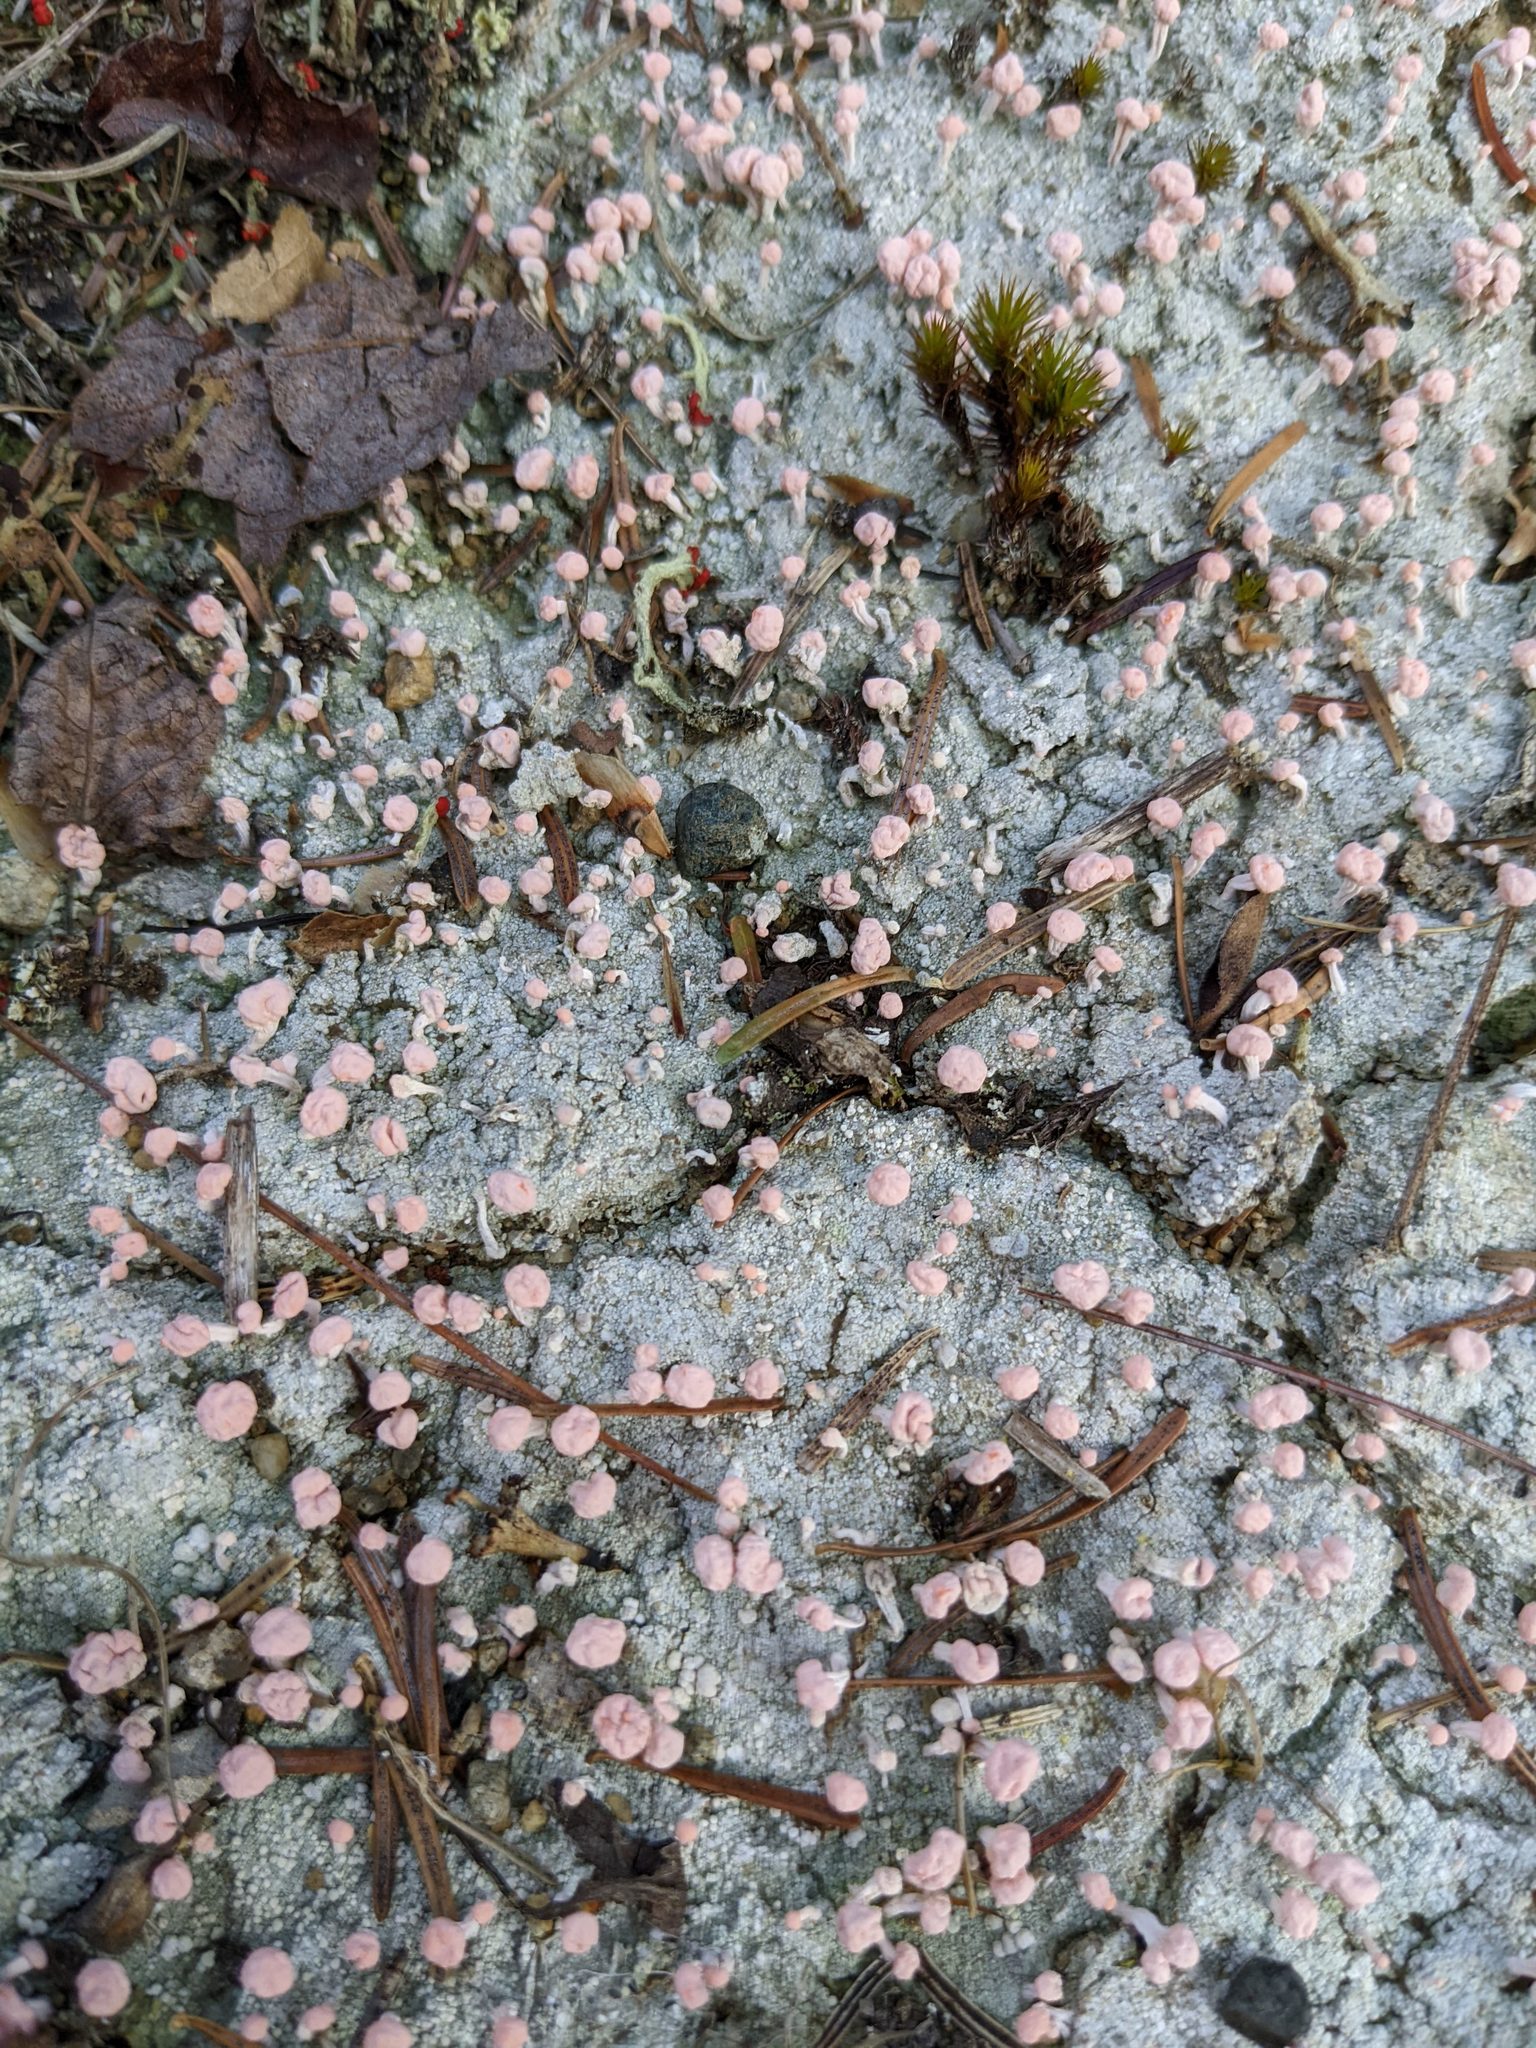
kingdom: Fungi
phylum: Ascomycota
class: Lecanoromycetes
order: Pertusariales
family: Icmadophilaceae
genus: Dibaeis
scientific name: Dibaeis baeomyces
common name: Pink earth lichen
